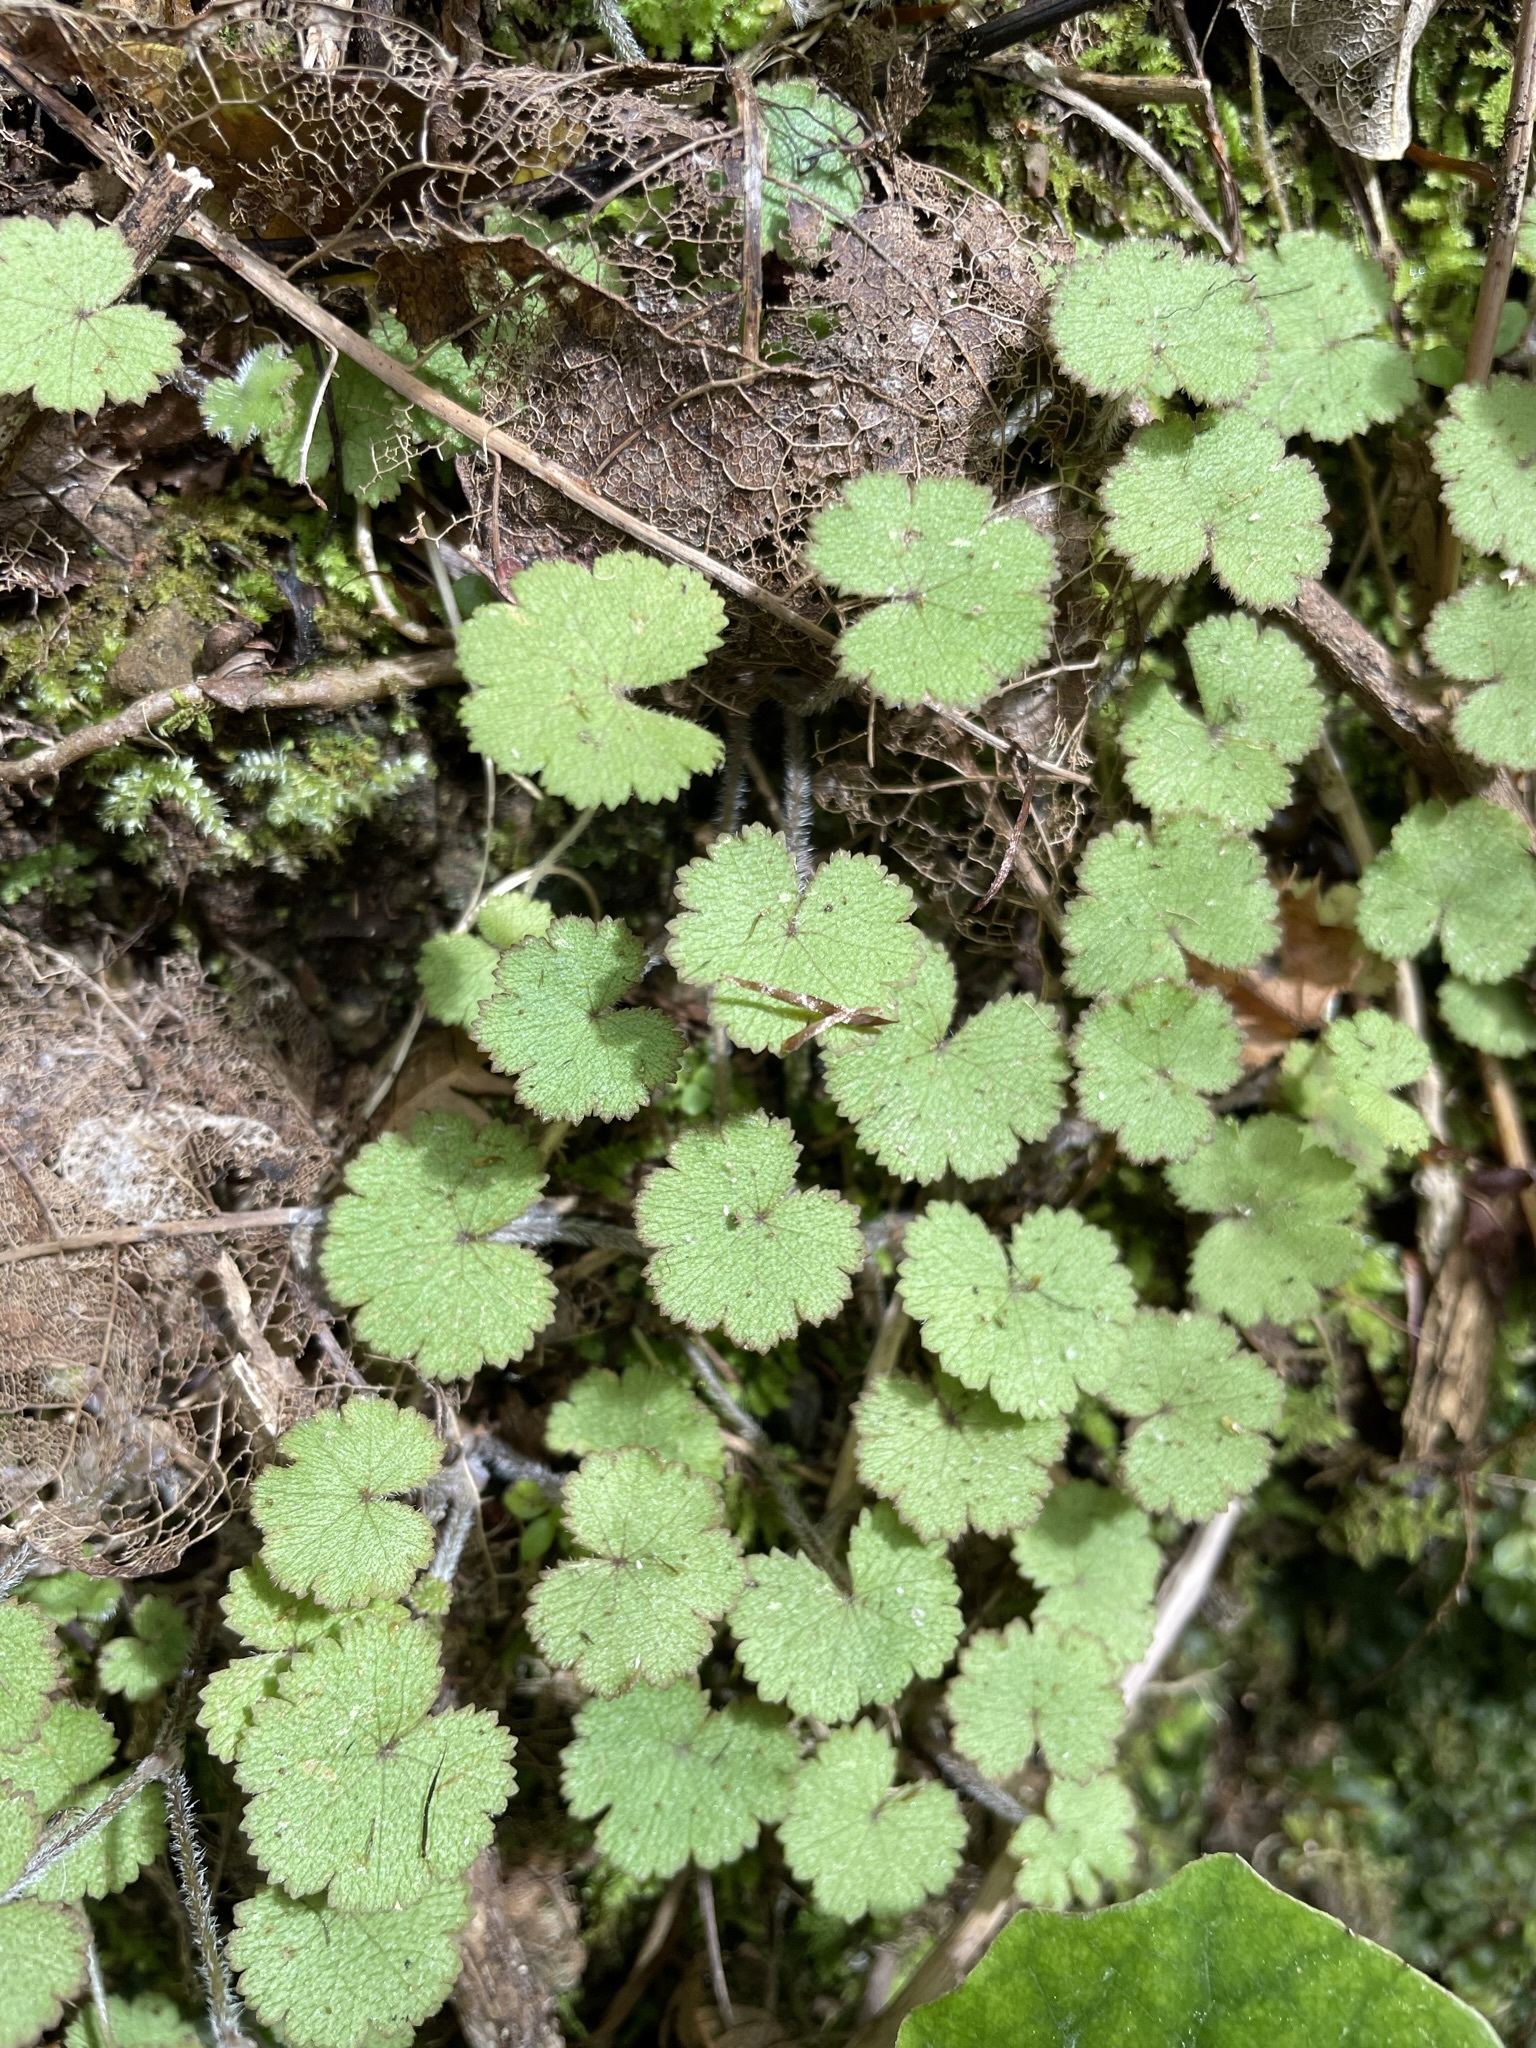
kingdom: Plantae
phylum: Tracheophyta
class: Magnoliopsida
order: Apiales
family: Araliaceae
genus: Hydrocotyle
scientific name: Hydrocotyle moschata
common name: Hairy pennywort
